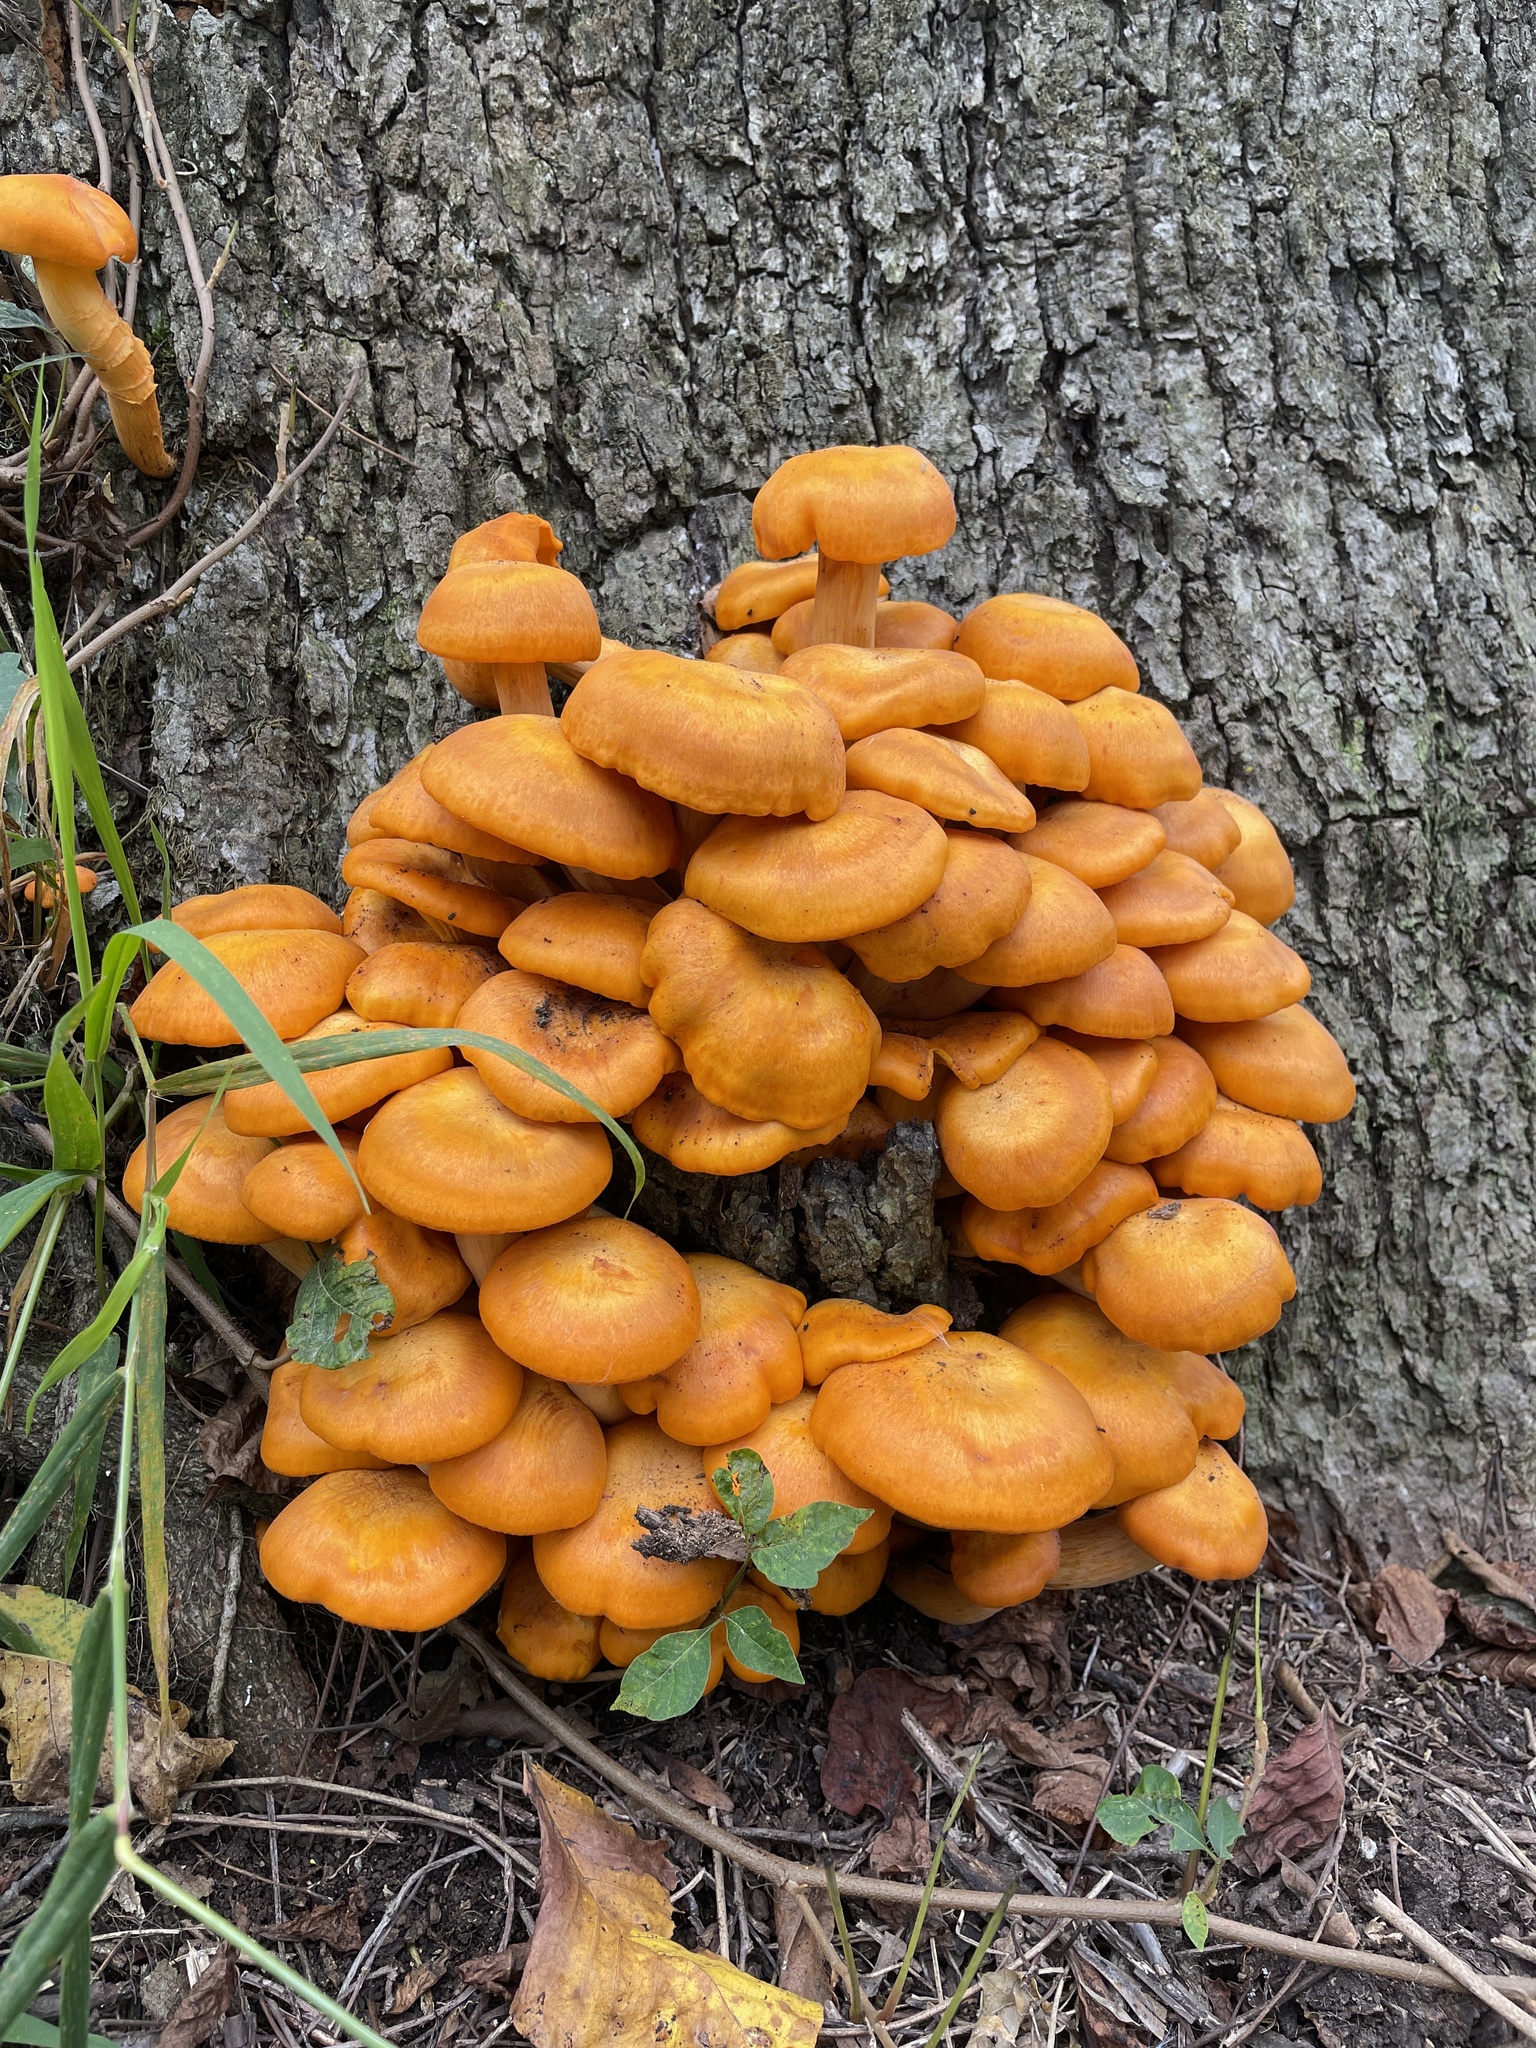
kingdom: Fungi
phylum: Basidiomycota
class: Agaricomycetes
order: Agaricales
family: Omphalotaceae
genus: Omphalotus
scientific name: Omphalotus illudens
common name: Jack o lantern
